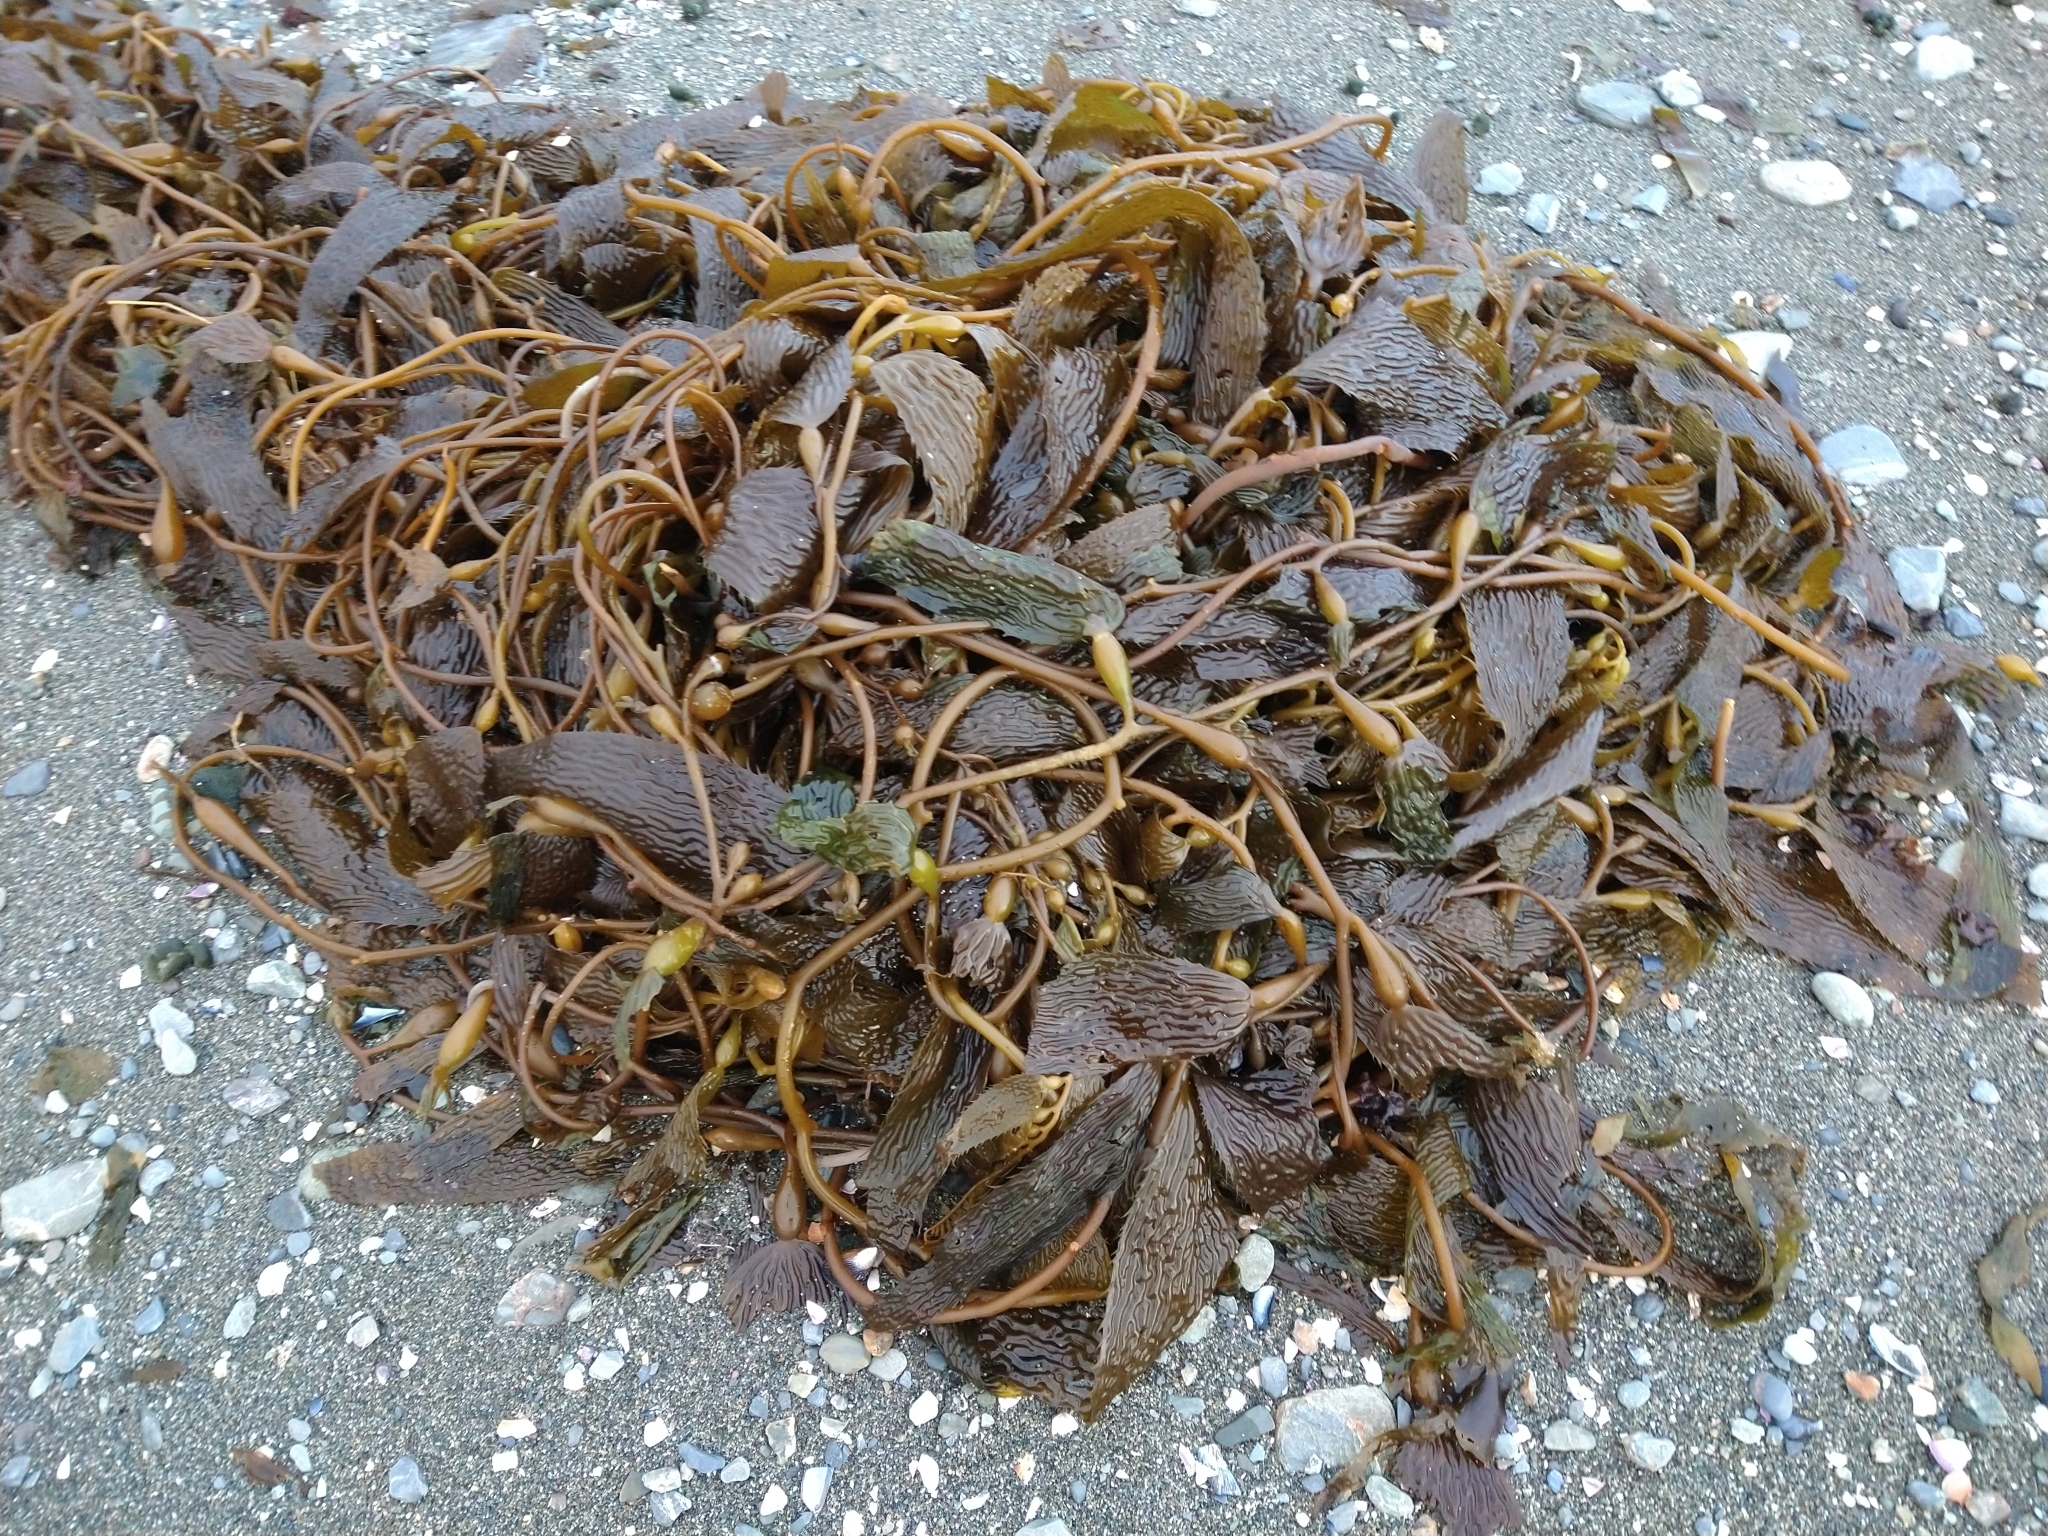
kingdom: Chromista
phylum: Ochrophyta
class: Phaeophyceae
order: Laminariales
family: Laminariaceae
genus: Macrocystis
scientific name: Macrocystis pyrifera
